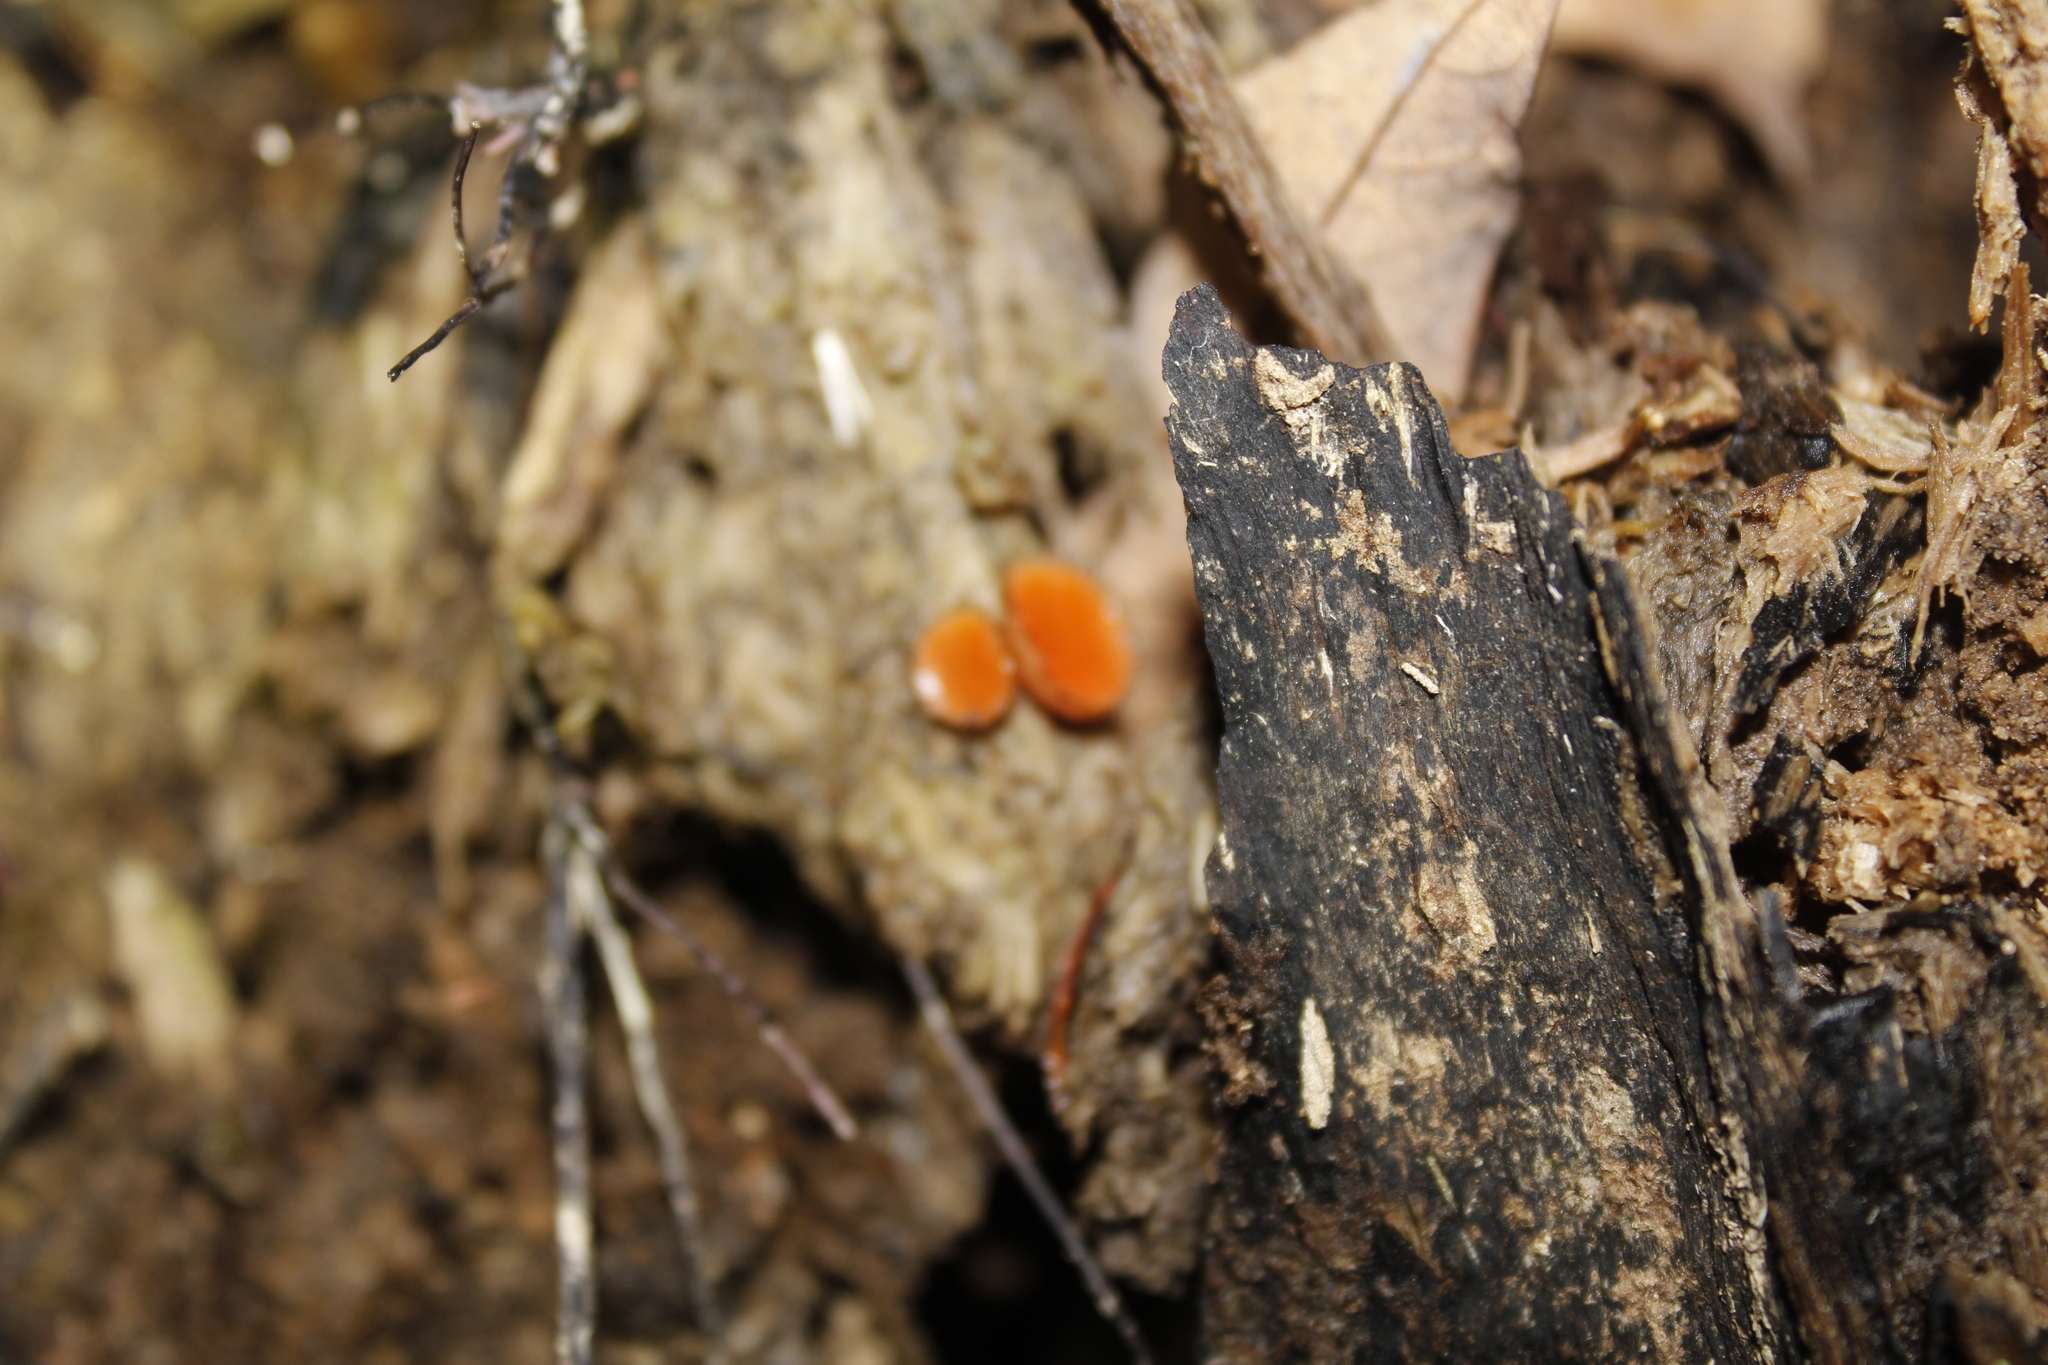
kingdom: Fungi
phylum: Ascomycota
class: Pezizomycetes
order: Pezizales
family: Pyronemataceae
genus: Scutellinia
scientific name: Scutellinia
